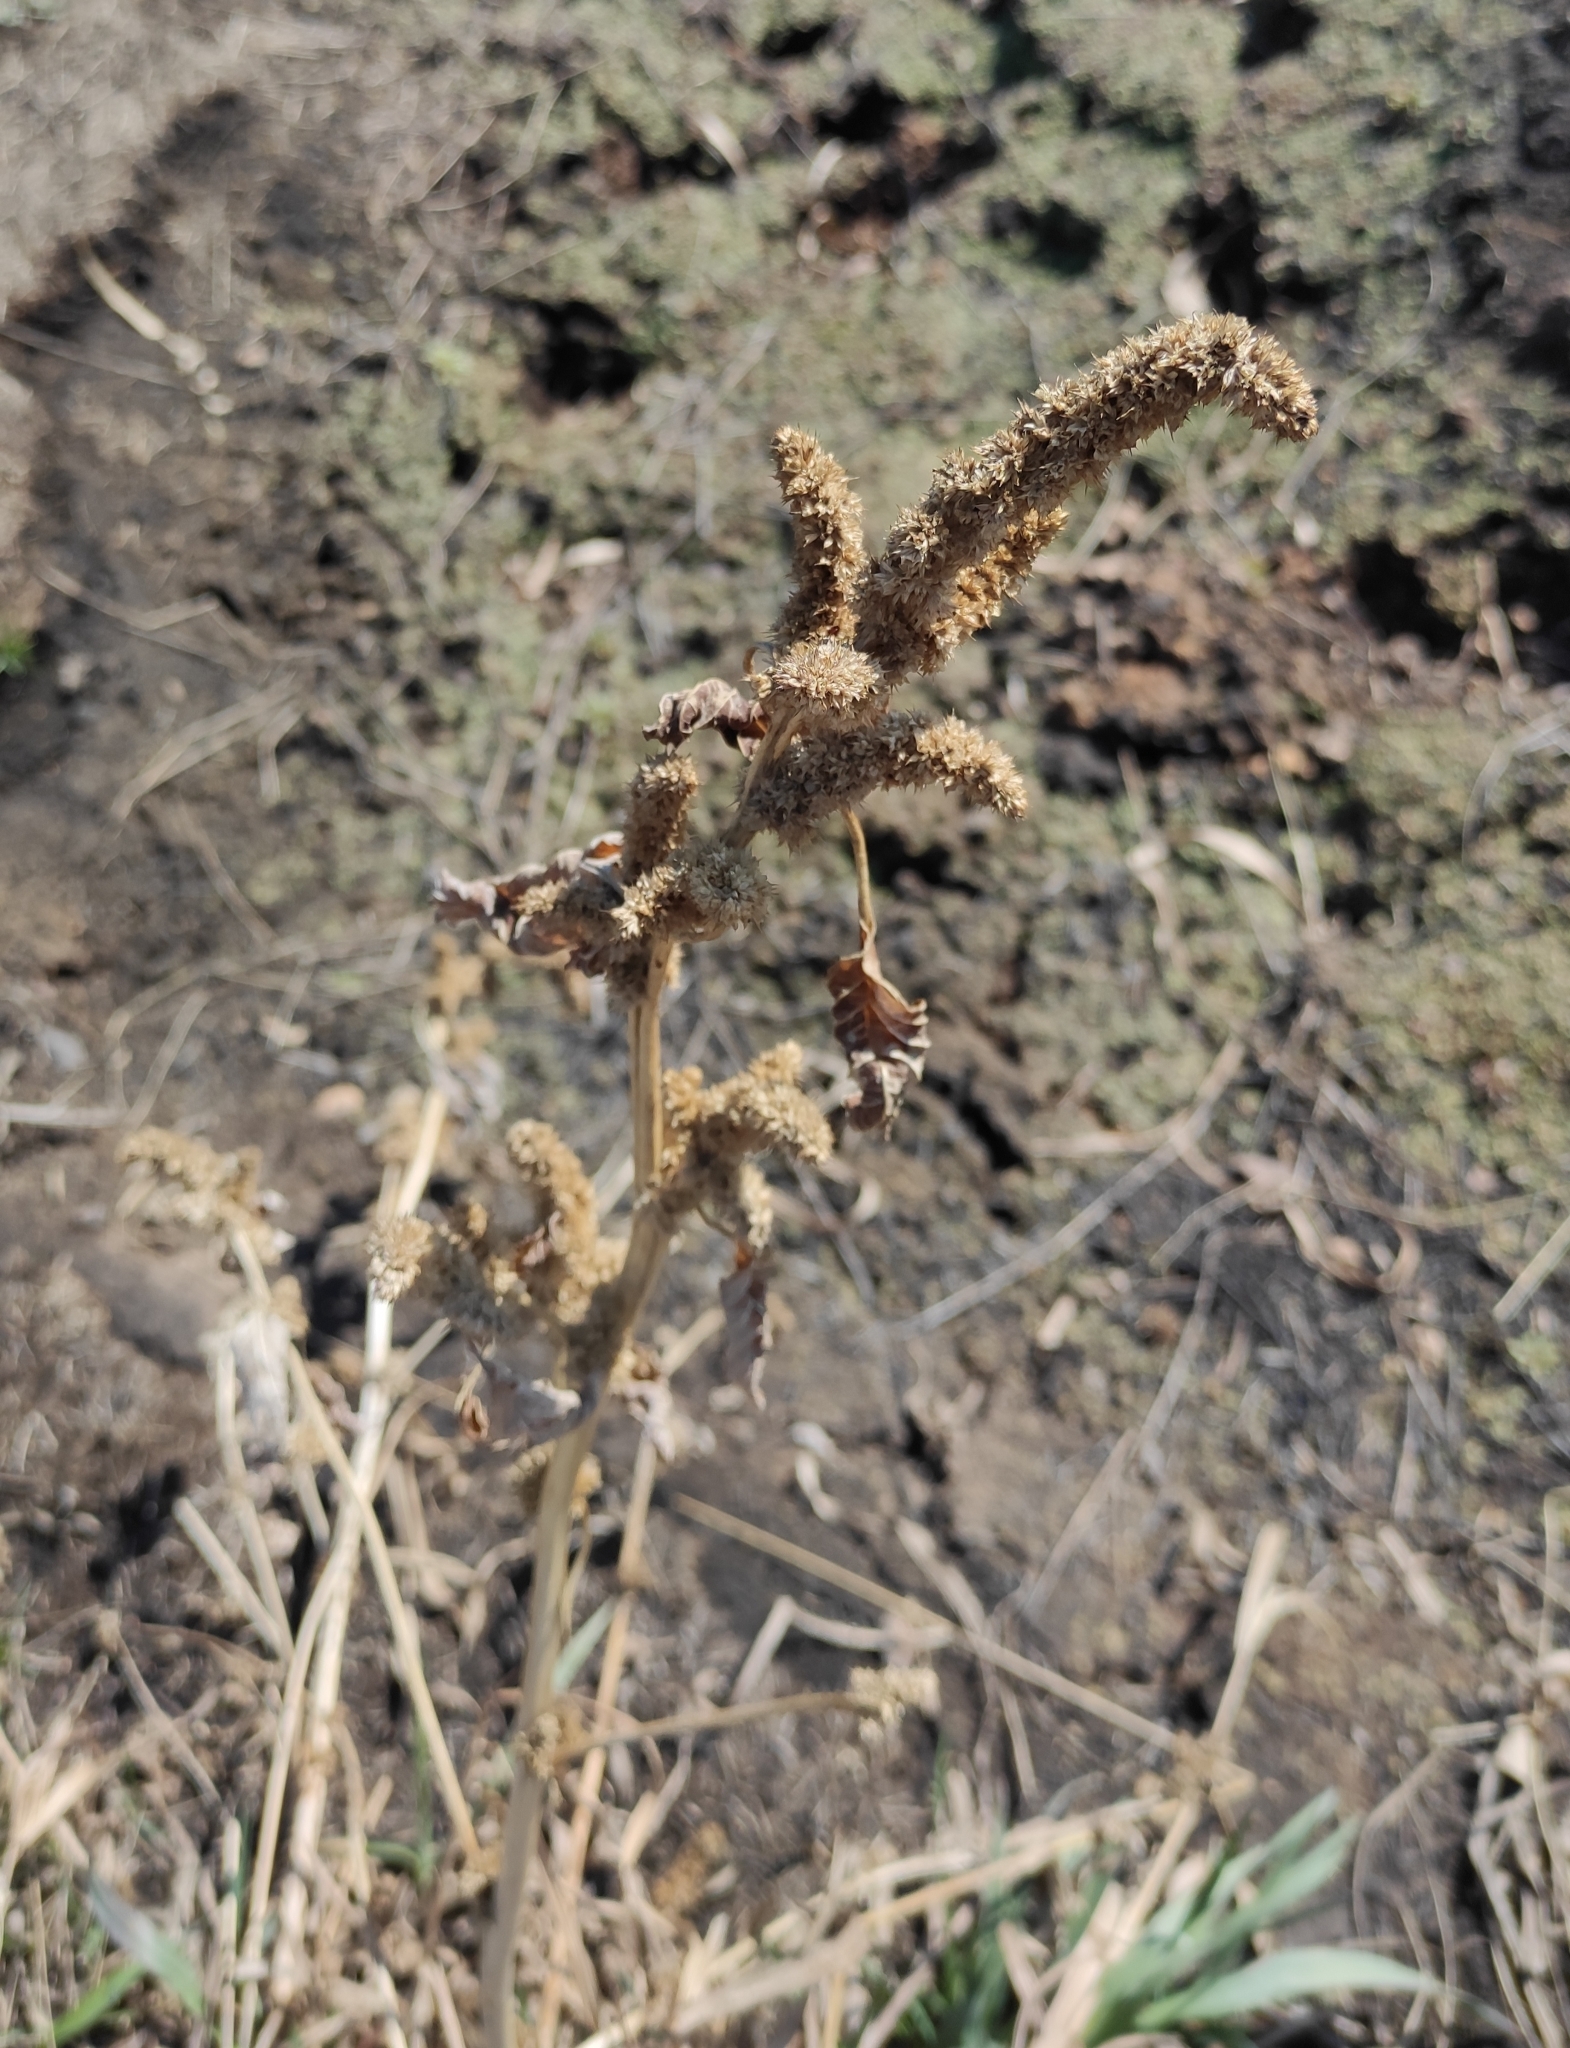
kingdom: Plantae
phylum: Tracheophyta
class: Magnoliopsida
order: Caryophyllales
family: Amaranthaceae
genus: Amaranthus
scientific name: Amaranthus retroflexus
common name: Redroot amaranth
